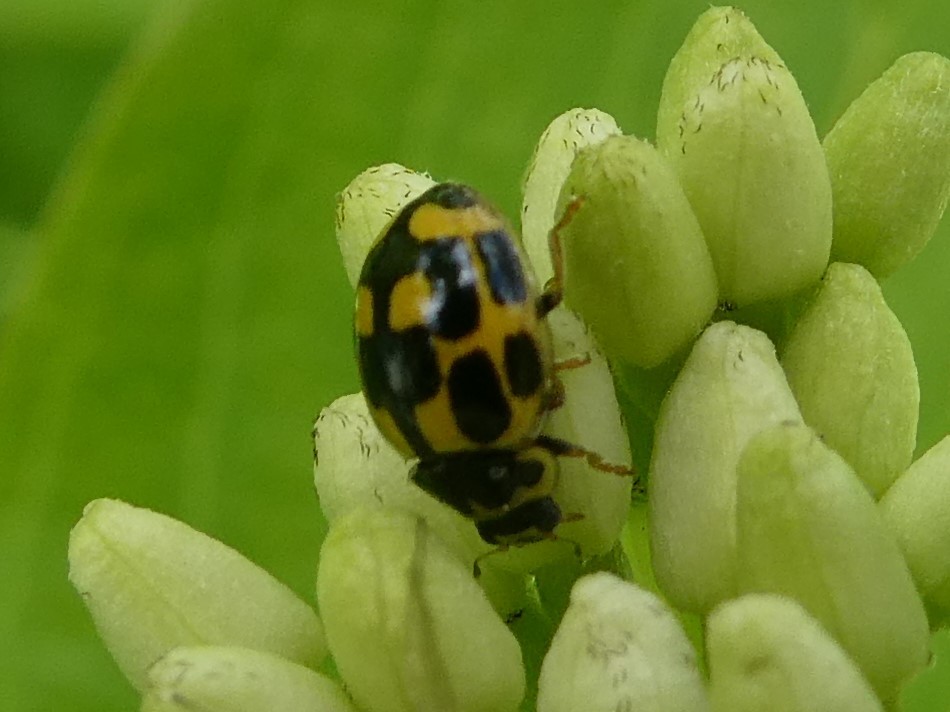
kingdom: Animalia
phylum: Arthropoda
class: Insecta
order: Coleoptera
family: Coccinellidae
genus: Propylaea
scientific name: Propylaea quatuordecimpunctata
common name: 14-spotted ladybird beetle
